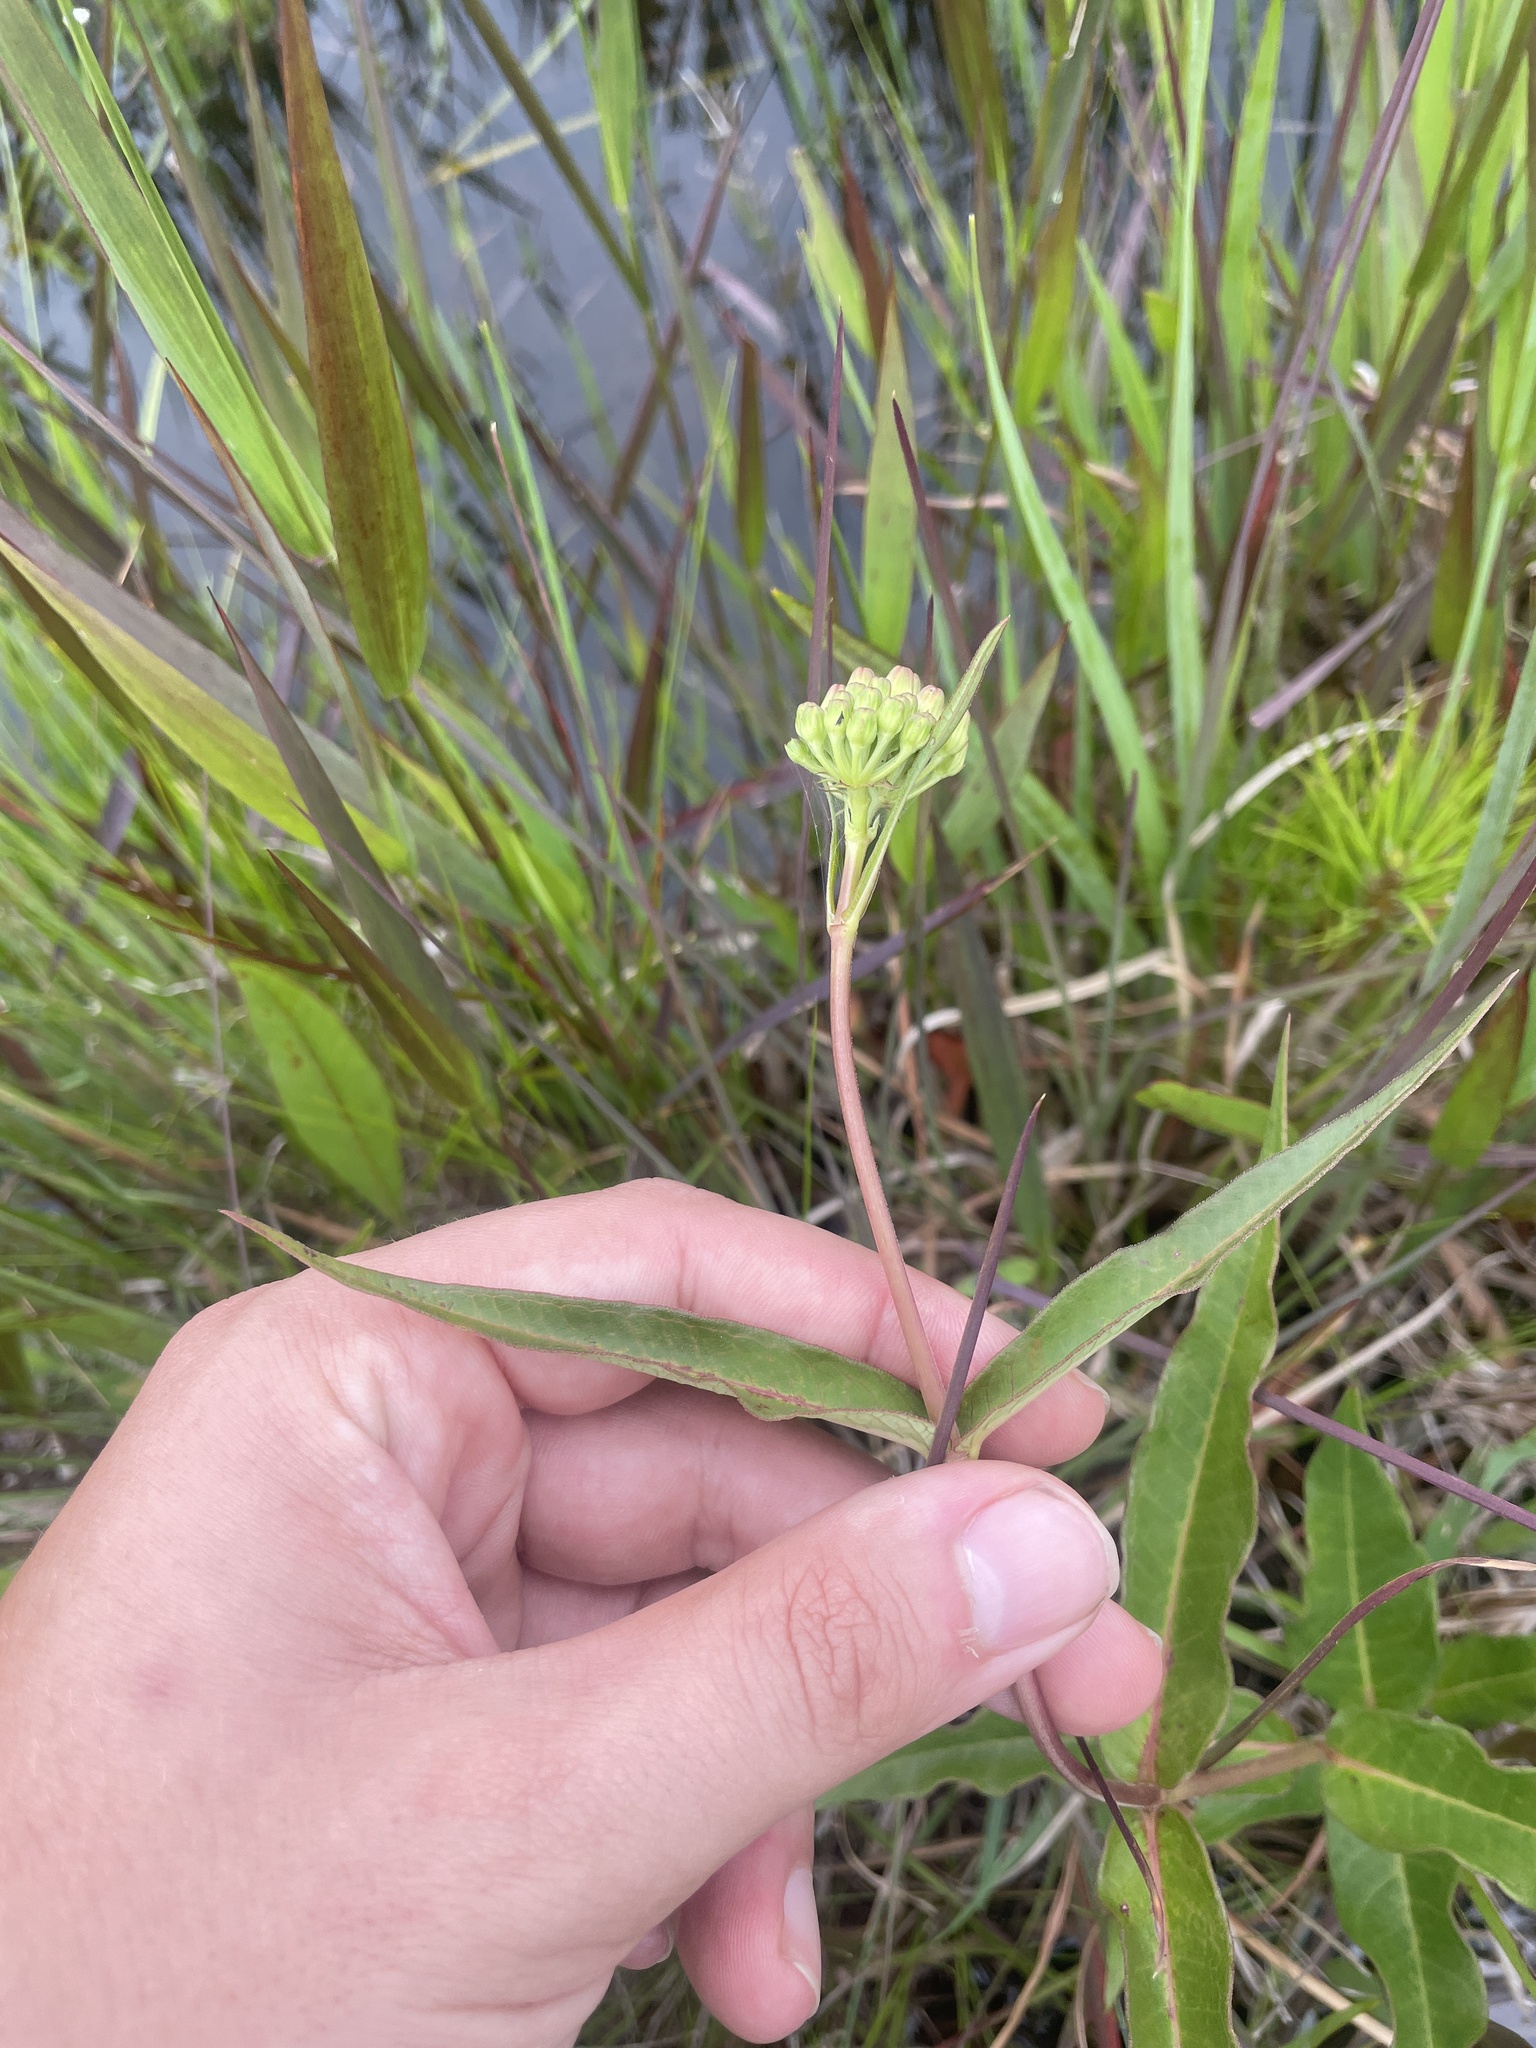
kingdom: Plantae
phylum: Tracheophyta
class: Magnoliopsida
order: Gentianales
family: Apocynaceae
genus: Asclepias
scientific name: Asclepias rubra
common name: Red milkweed
